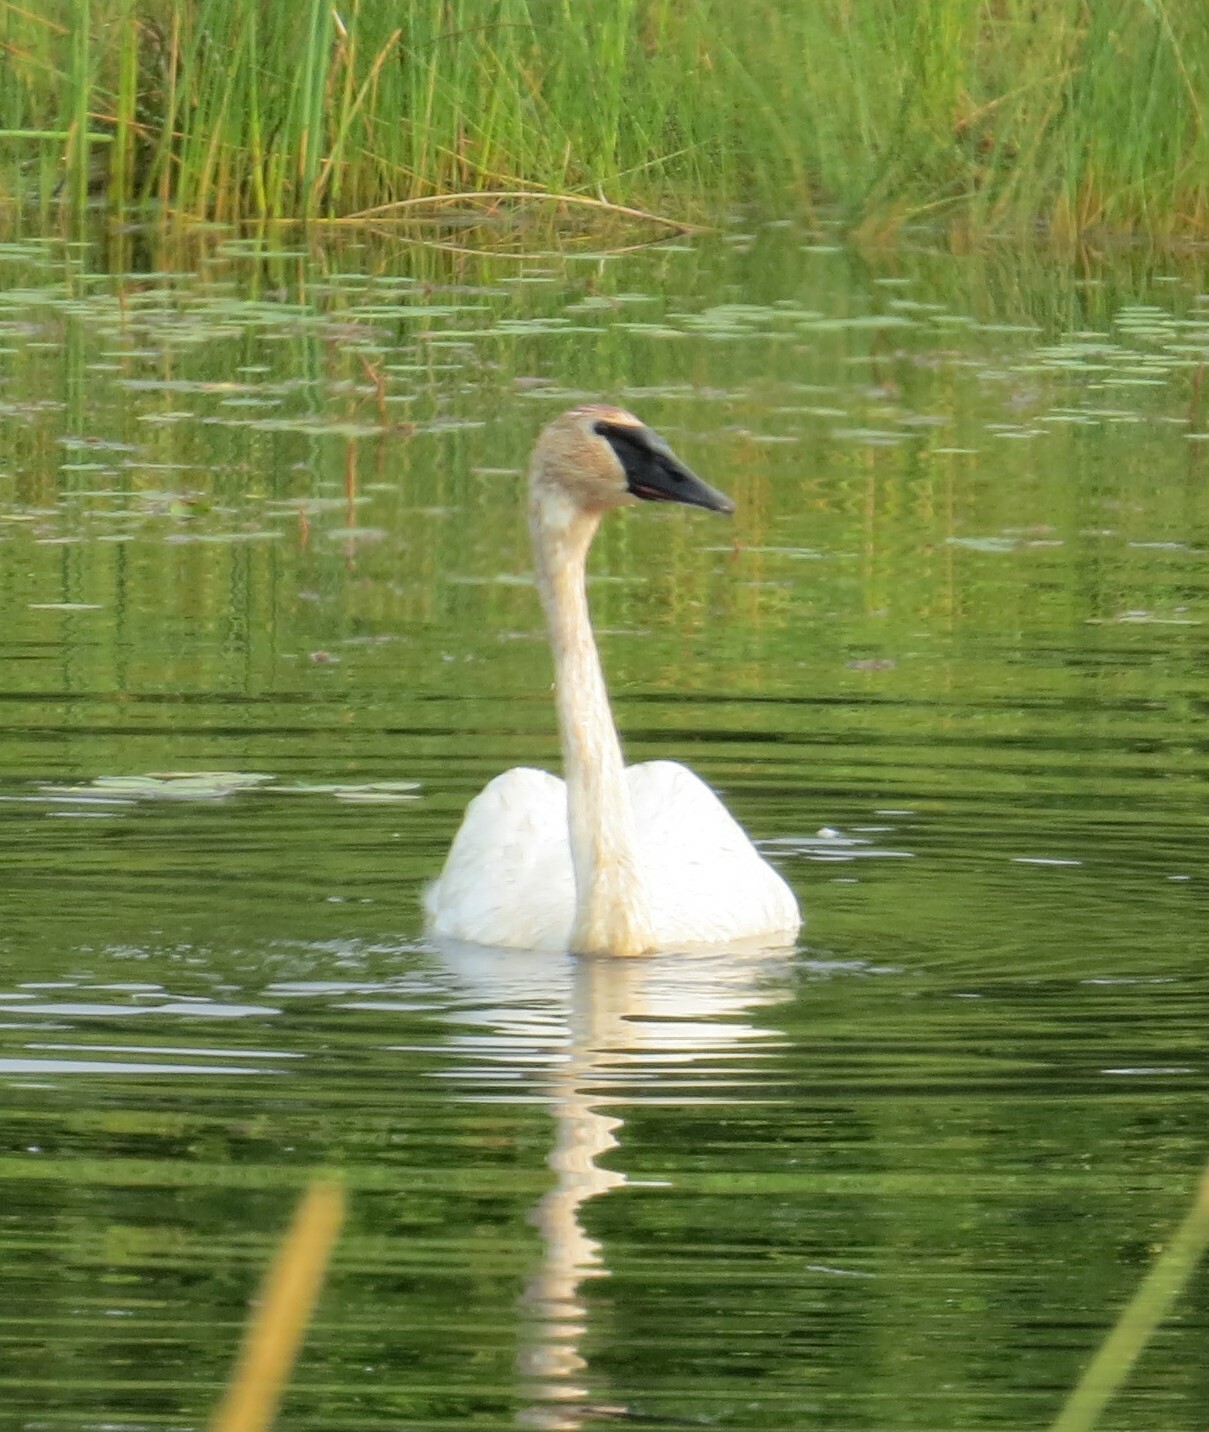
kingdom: Animalia
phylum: Chordata
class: Aves
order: Anseriformes
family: Anatidae
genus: Cygnus
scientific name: Cygnus buccinator
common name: Trumpeter swan
